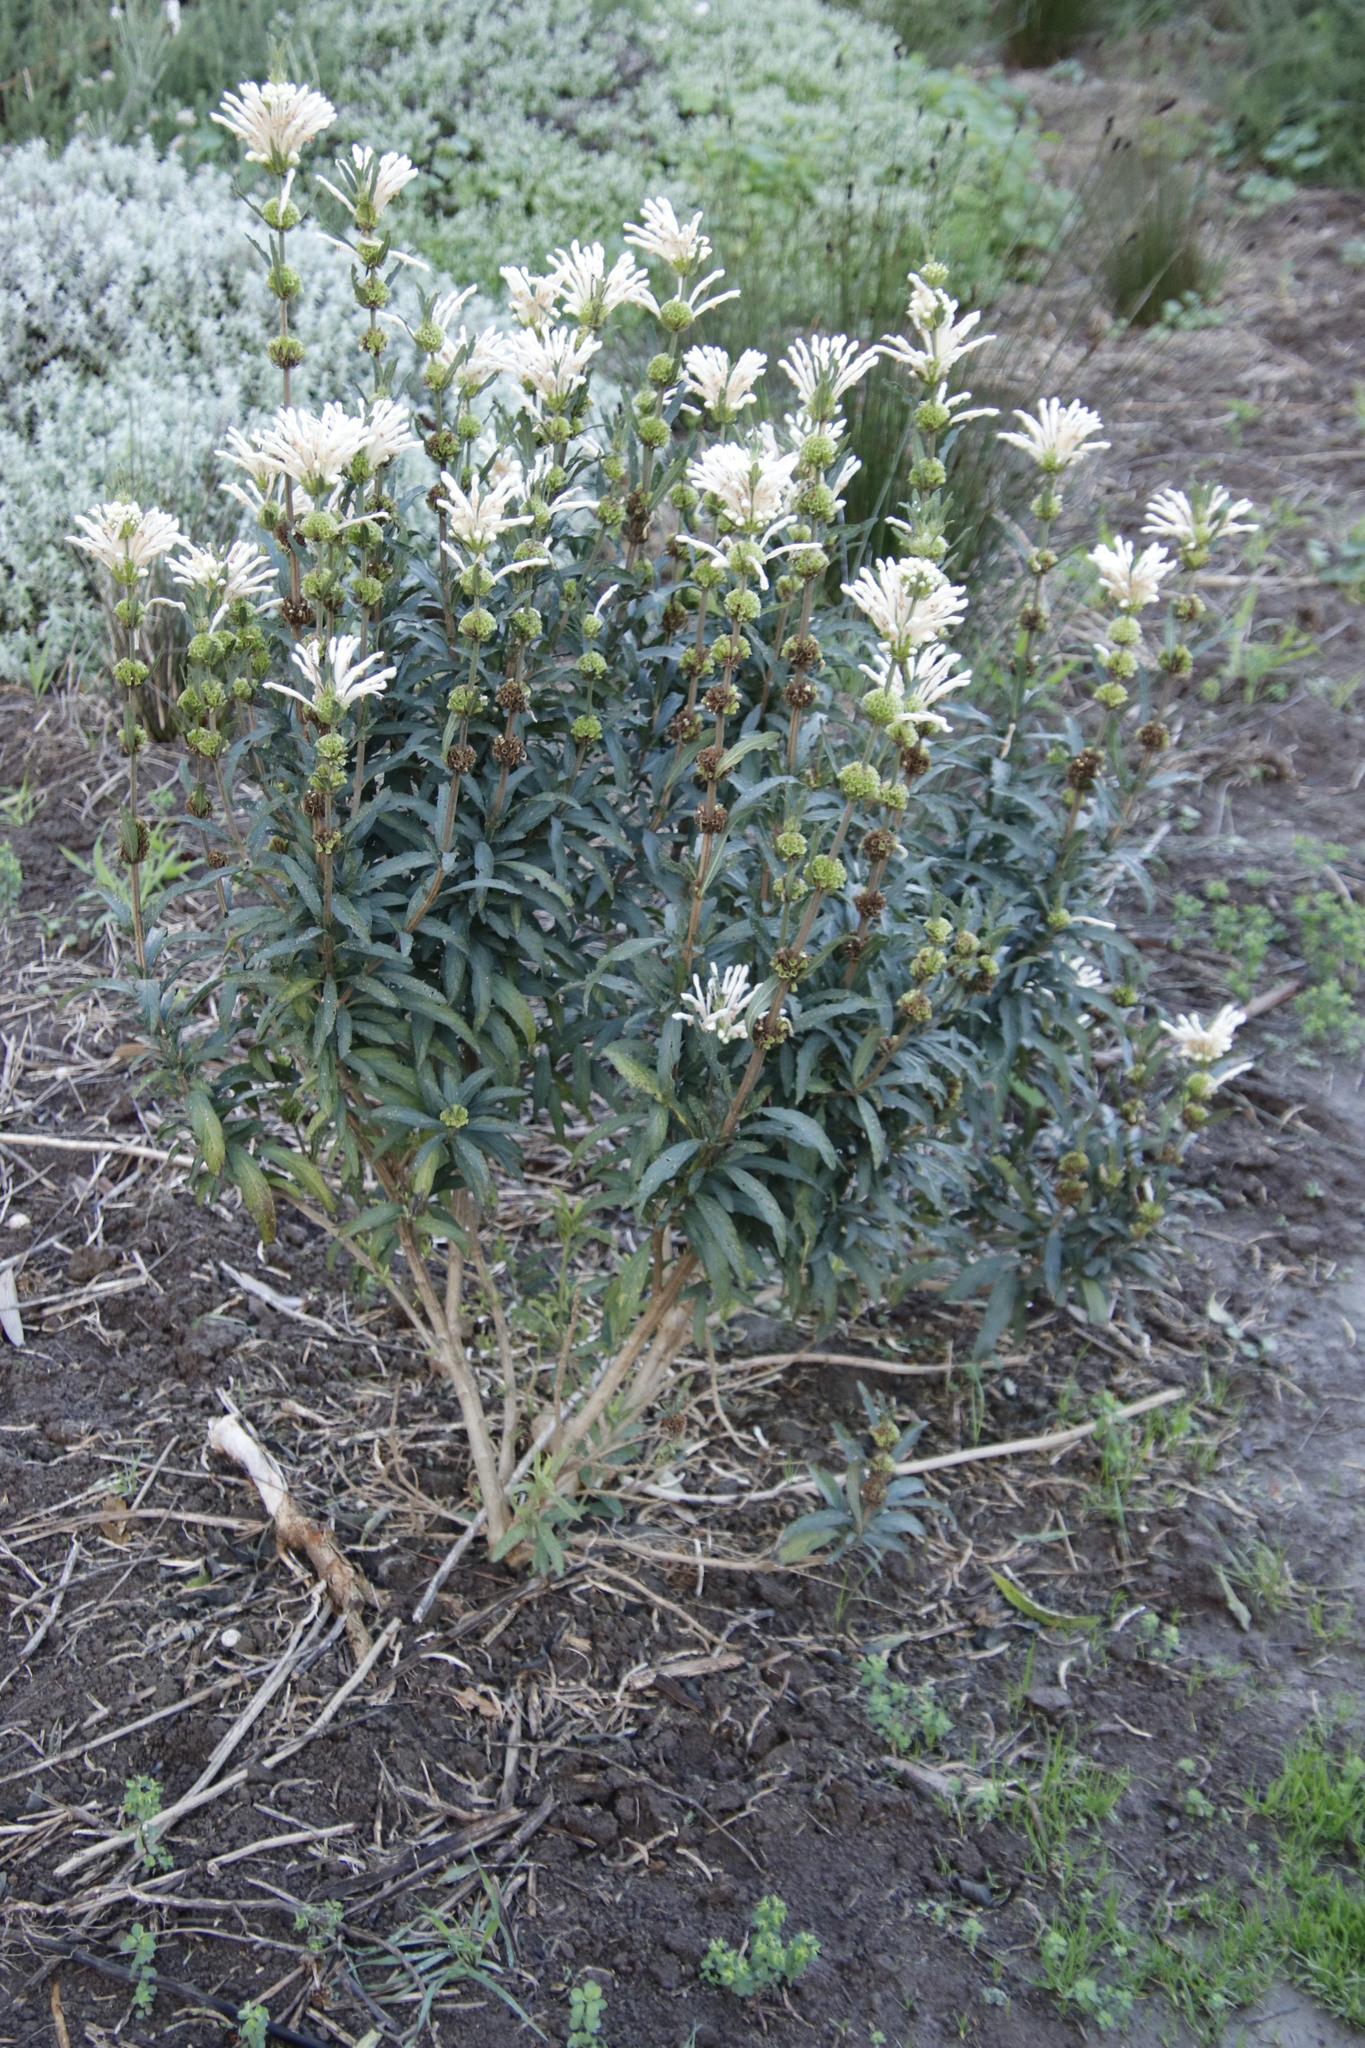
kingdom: Plantae
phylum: Tracheophyta
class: Magnoliopsida
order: Lamiales
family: Lamiaceae
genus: Leonotis
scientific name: Leonotis leonurus
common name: Lion's ear
